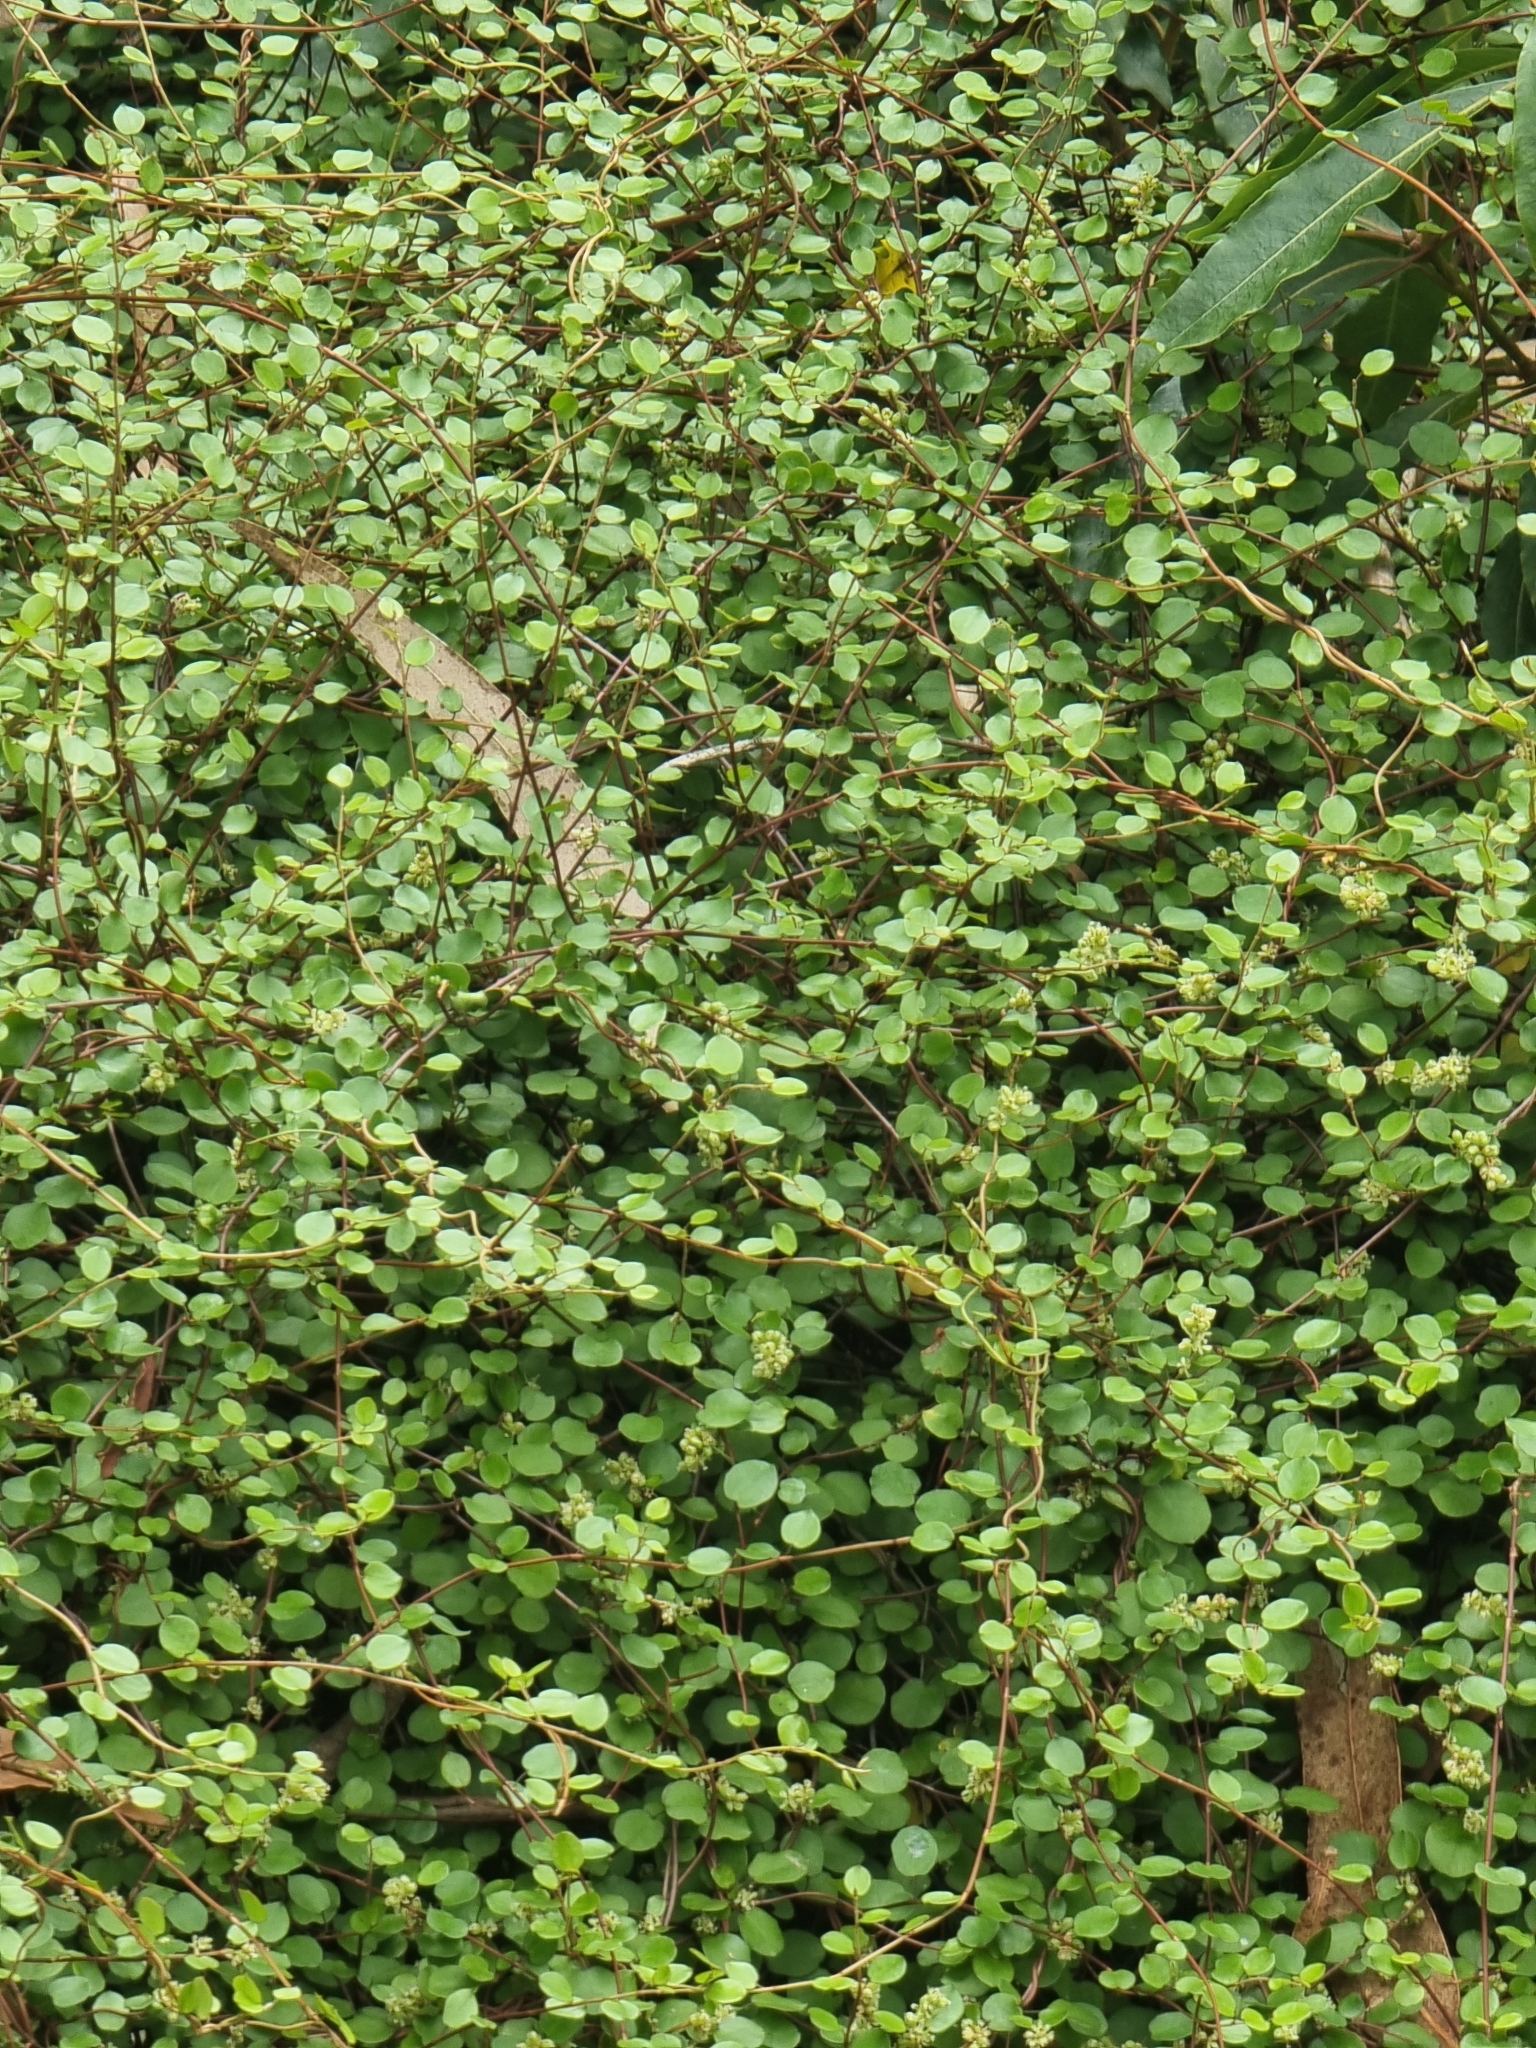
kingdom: Plantae
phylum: Tracheophyta
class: Magnoliopsida
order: Caryophyllales
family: Polygonaceae
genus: Muehlenbeckia
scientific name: Muehlenbeckia complexa
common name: Wireplant
